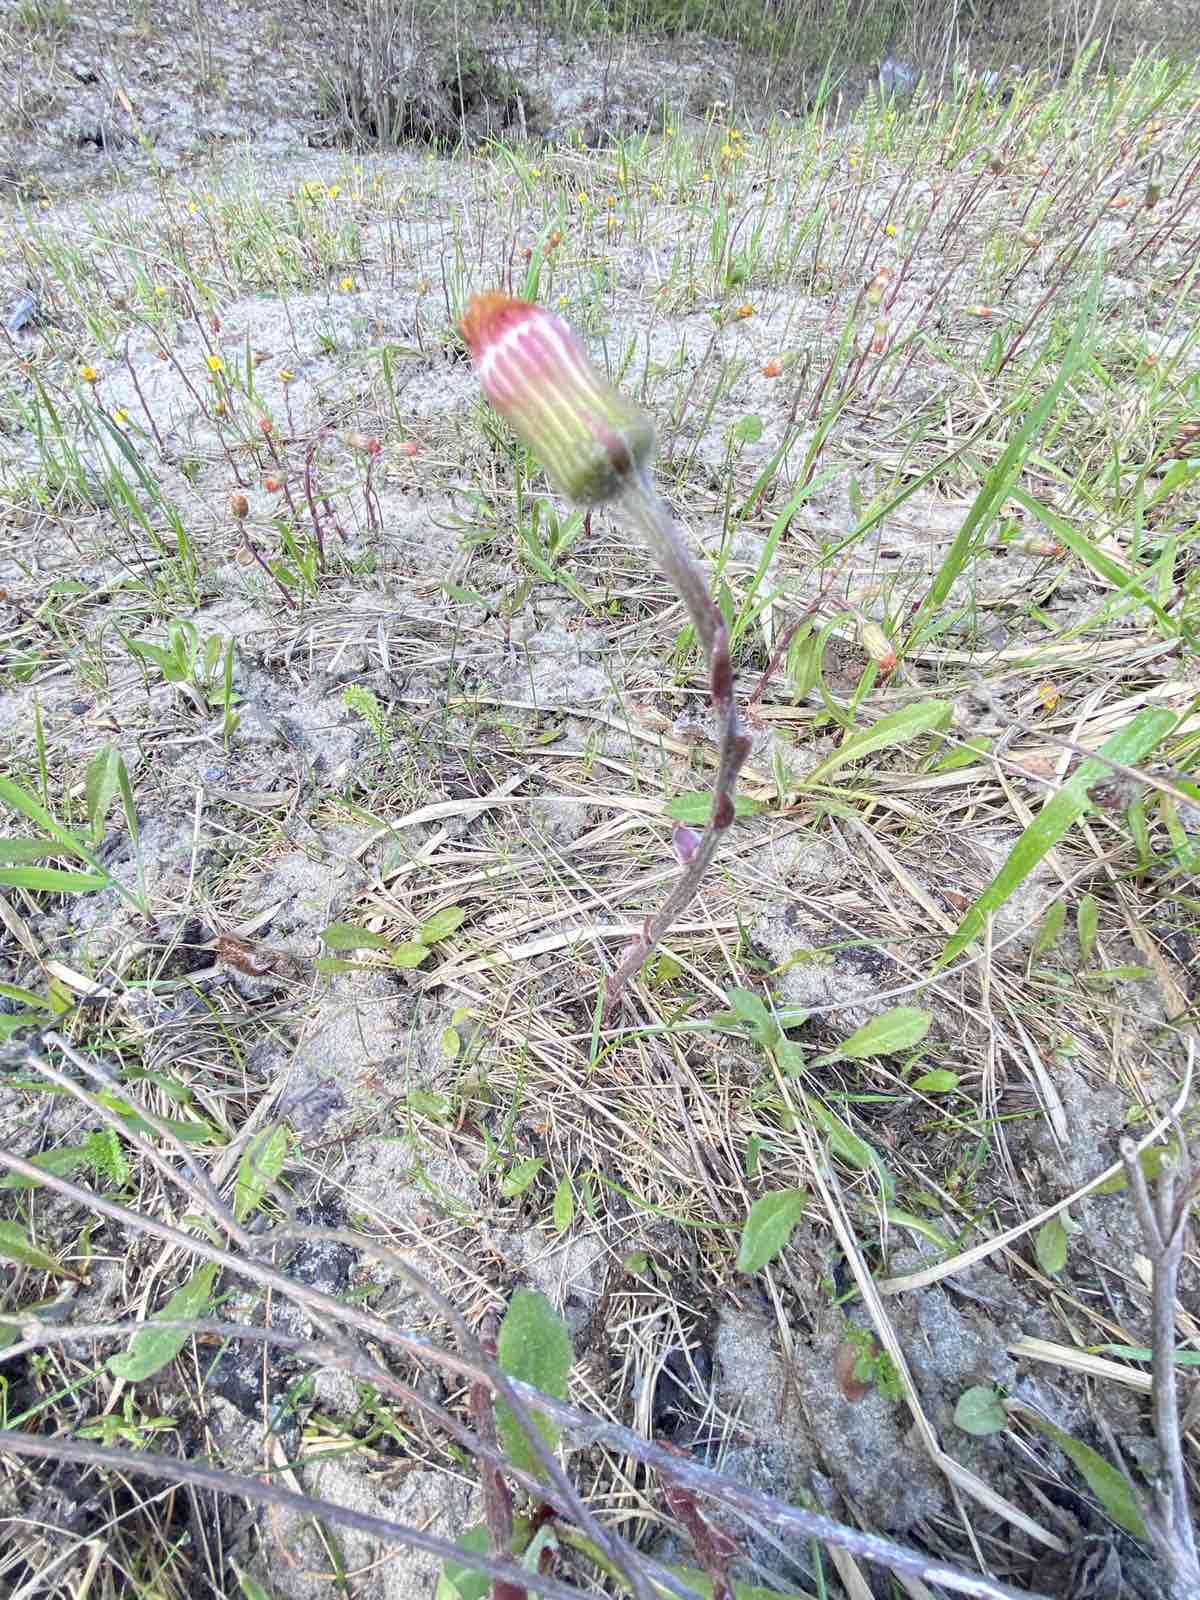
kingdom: Plantae
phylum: Tracheophyta
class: Magnoliopsida
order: Asterales
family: Asteraceae
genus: Tussilago
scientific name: Tussilago farfara
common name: Coltsfoot
